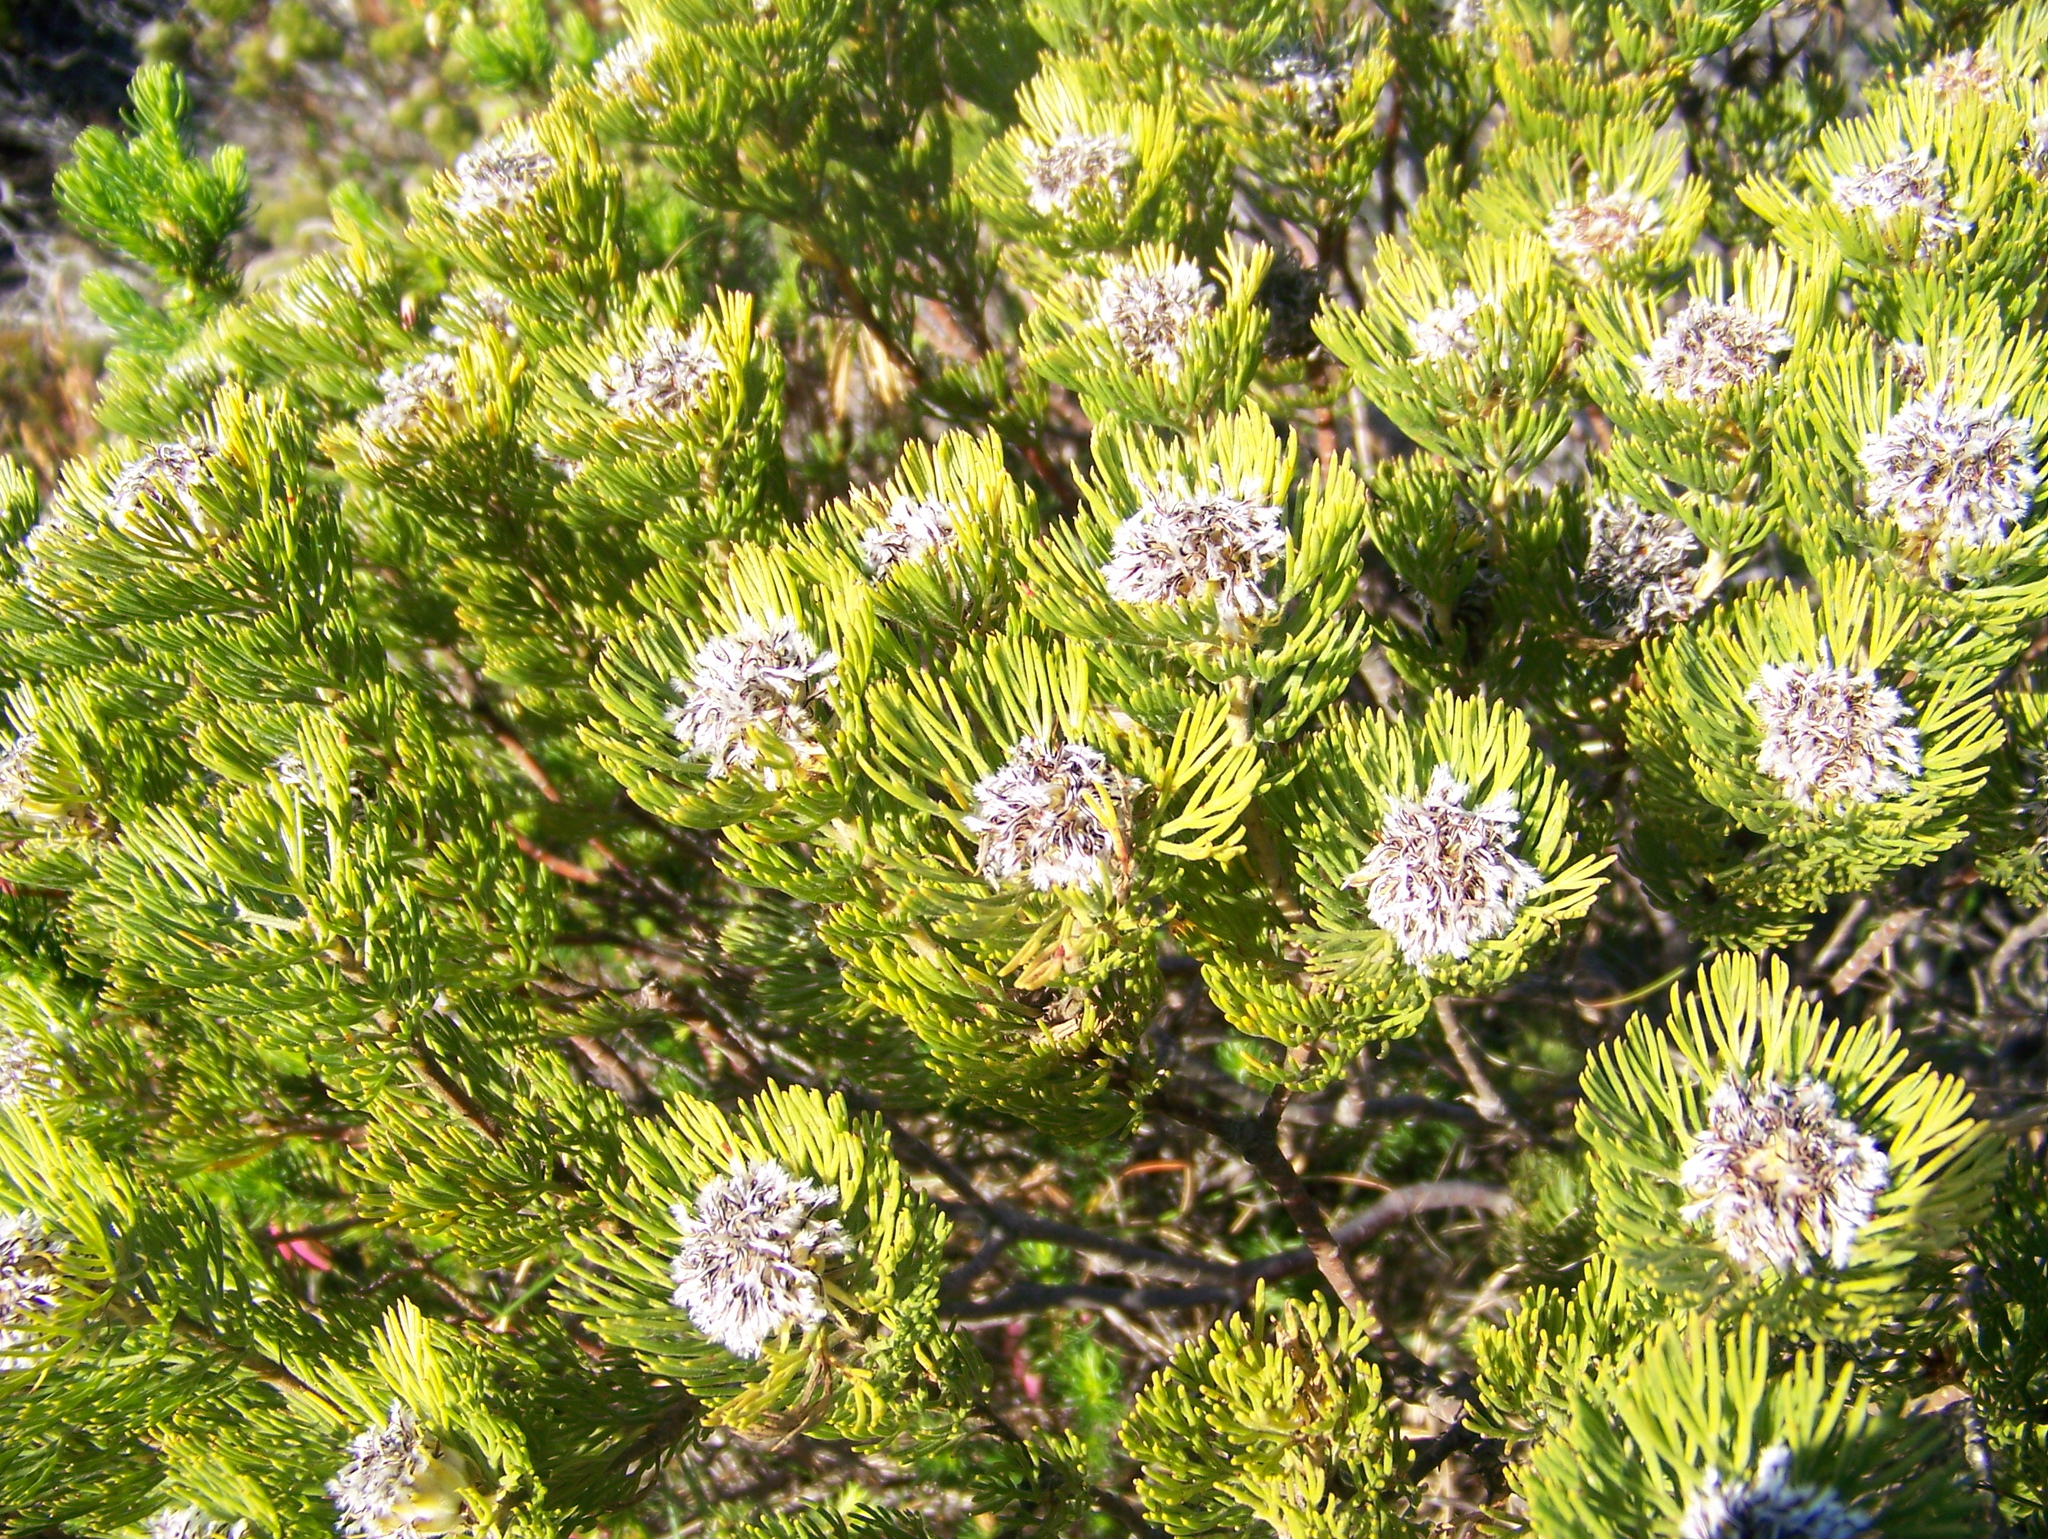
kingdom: Plantae
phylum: Tracheophyta
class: Magnoliopsida
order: Proteales
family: Proteaceae
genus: Serruria
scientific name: Serruria villosa
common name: Golden spiderhead
